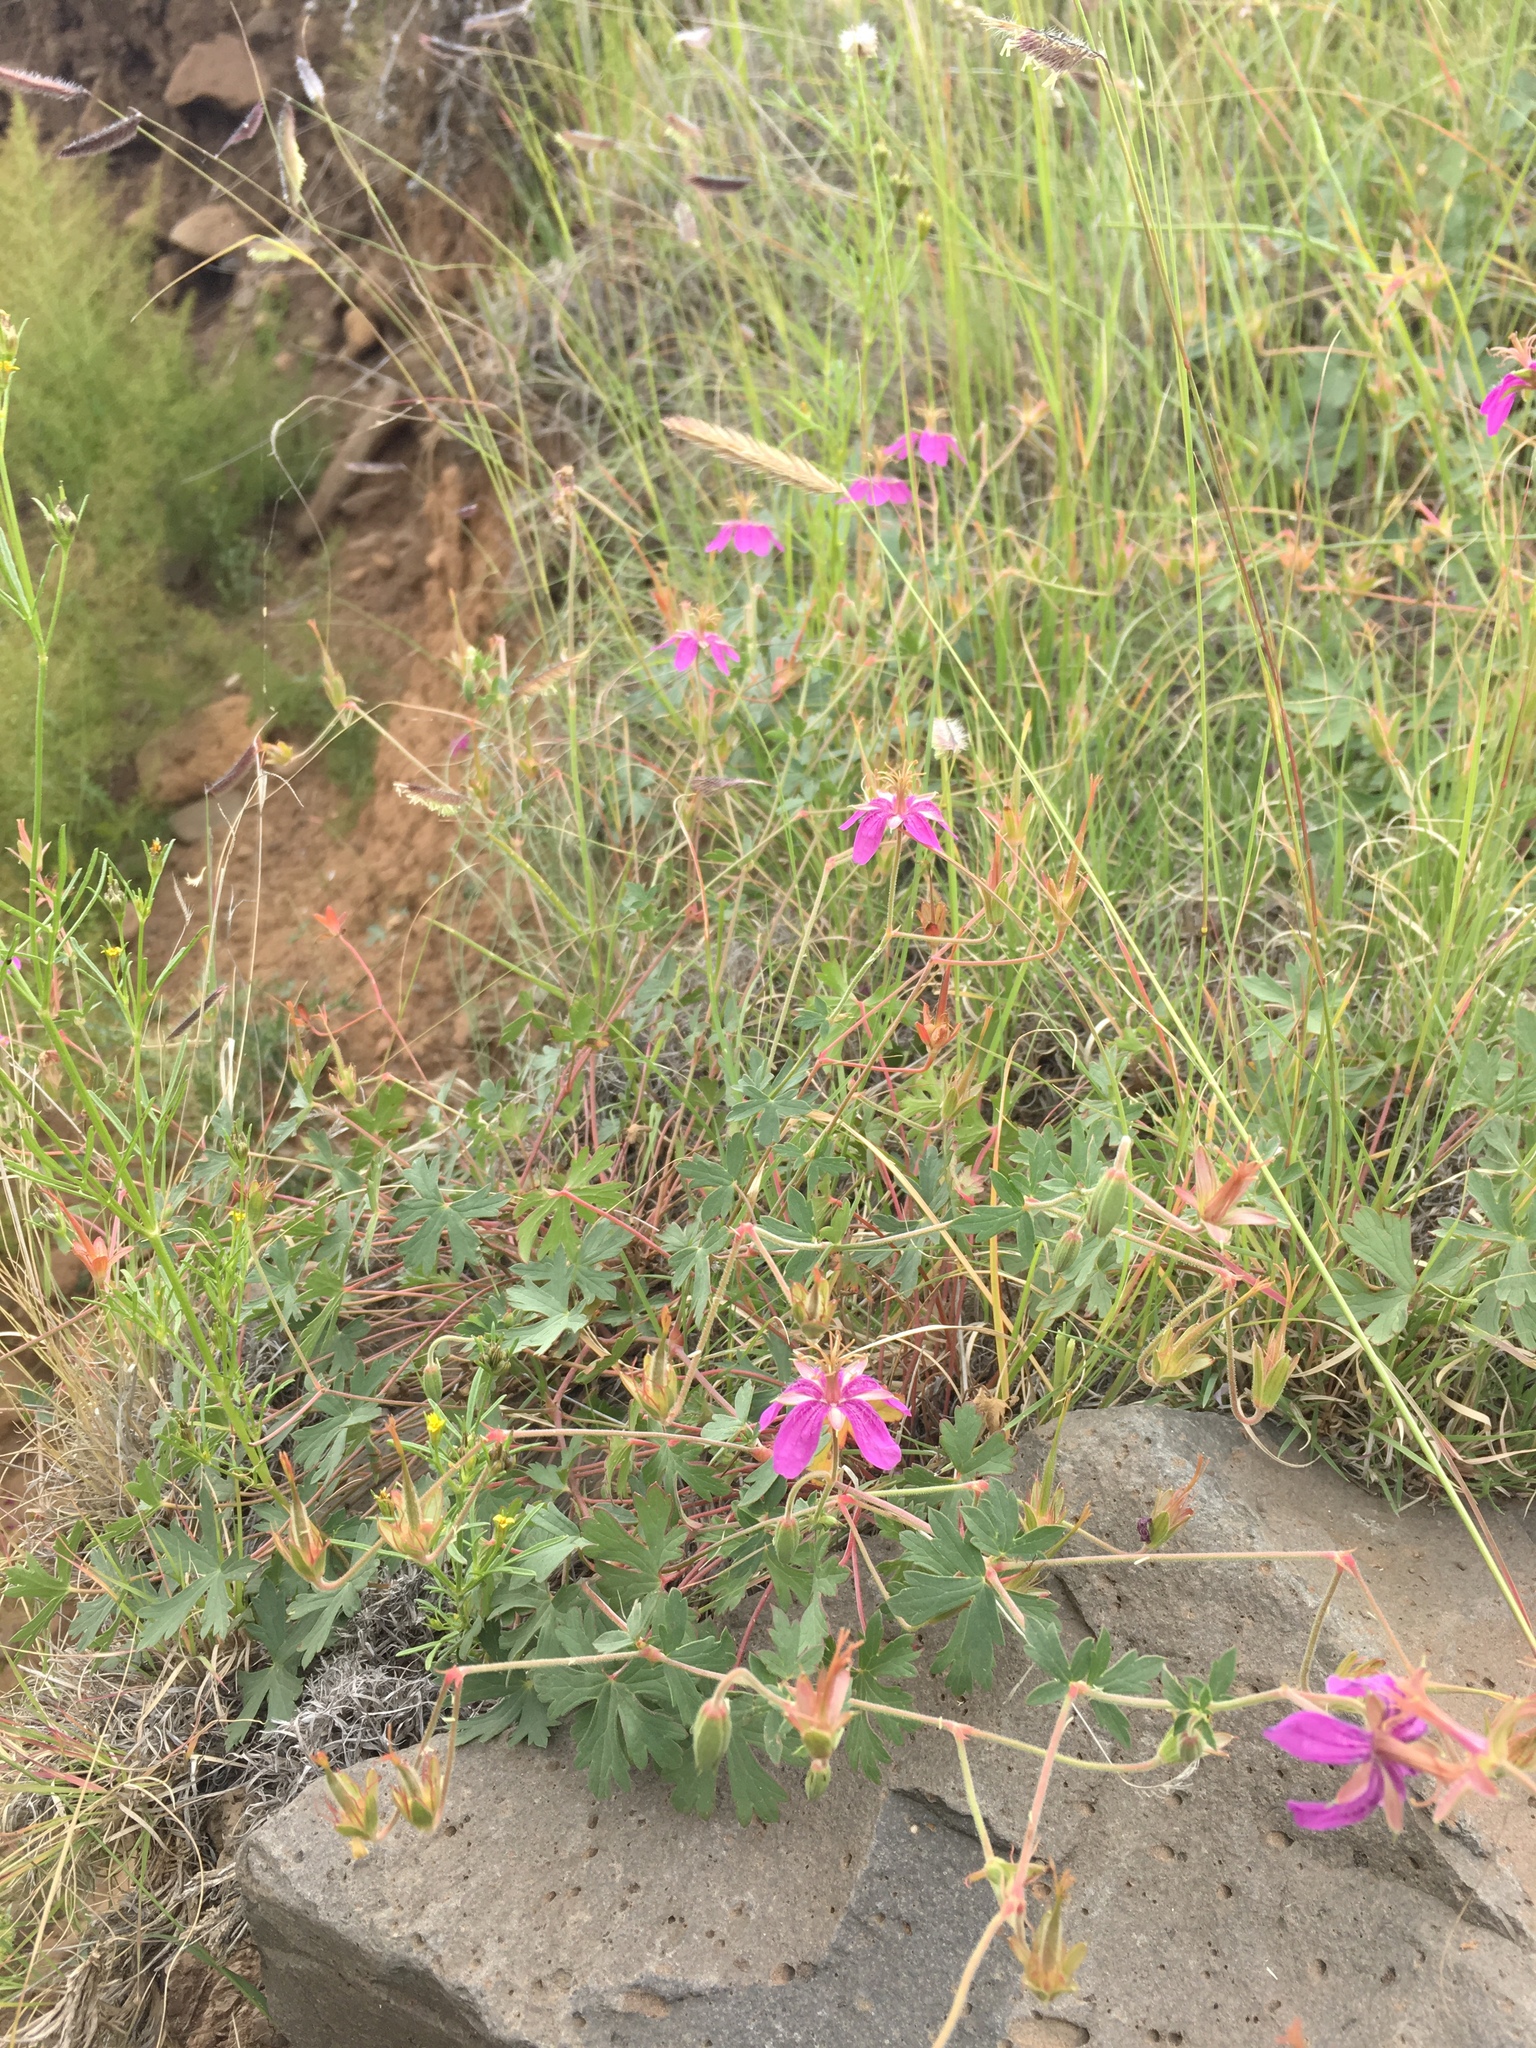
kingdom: Plantae
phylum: Tracheophyta
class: Magnoliopsida
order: Geraniales
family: Geraniaceae
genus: Geranium
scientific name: Geranium caespitosum
